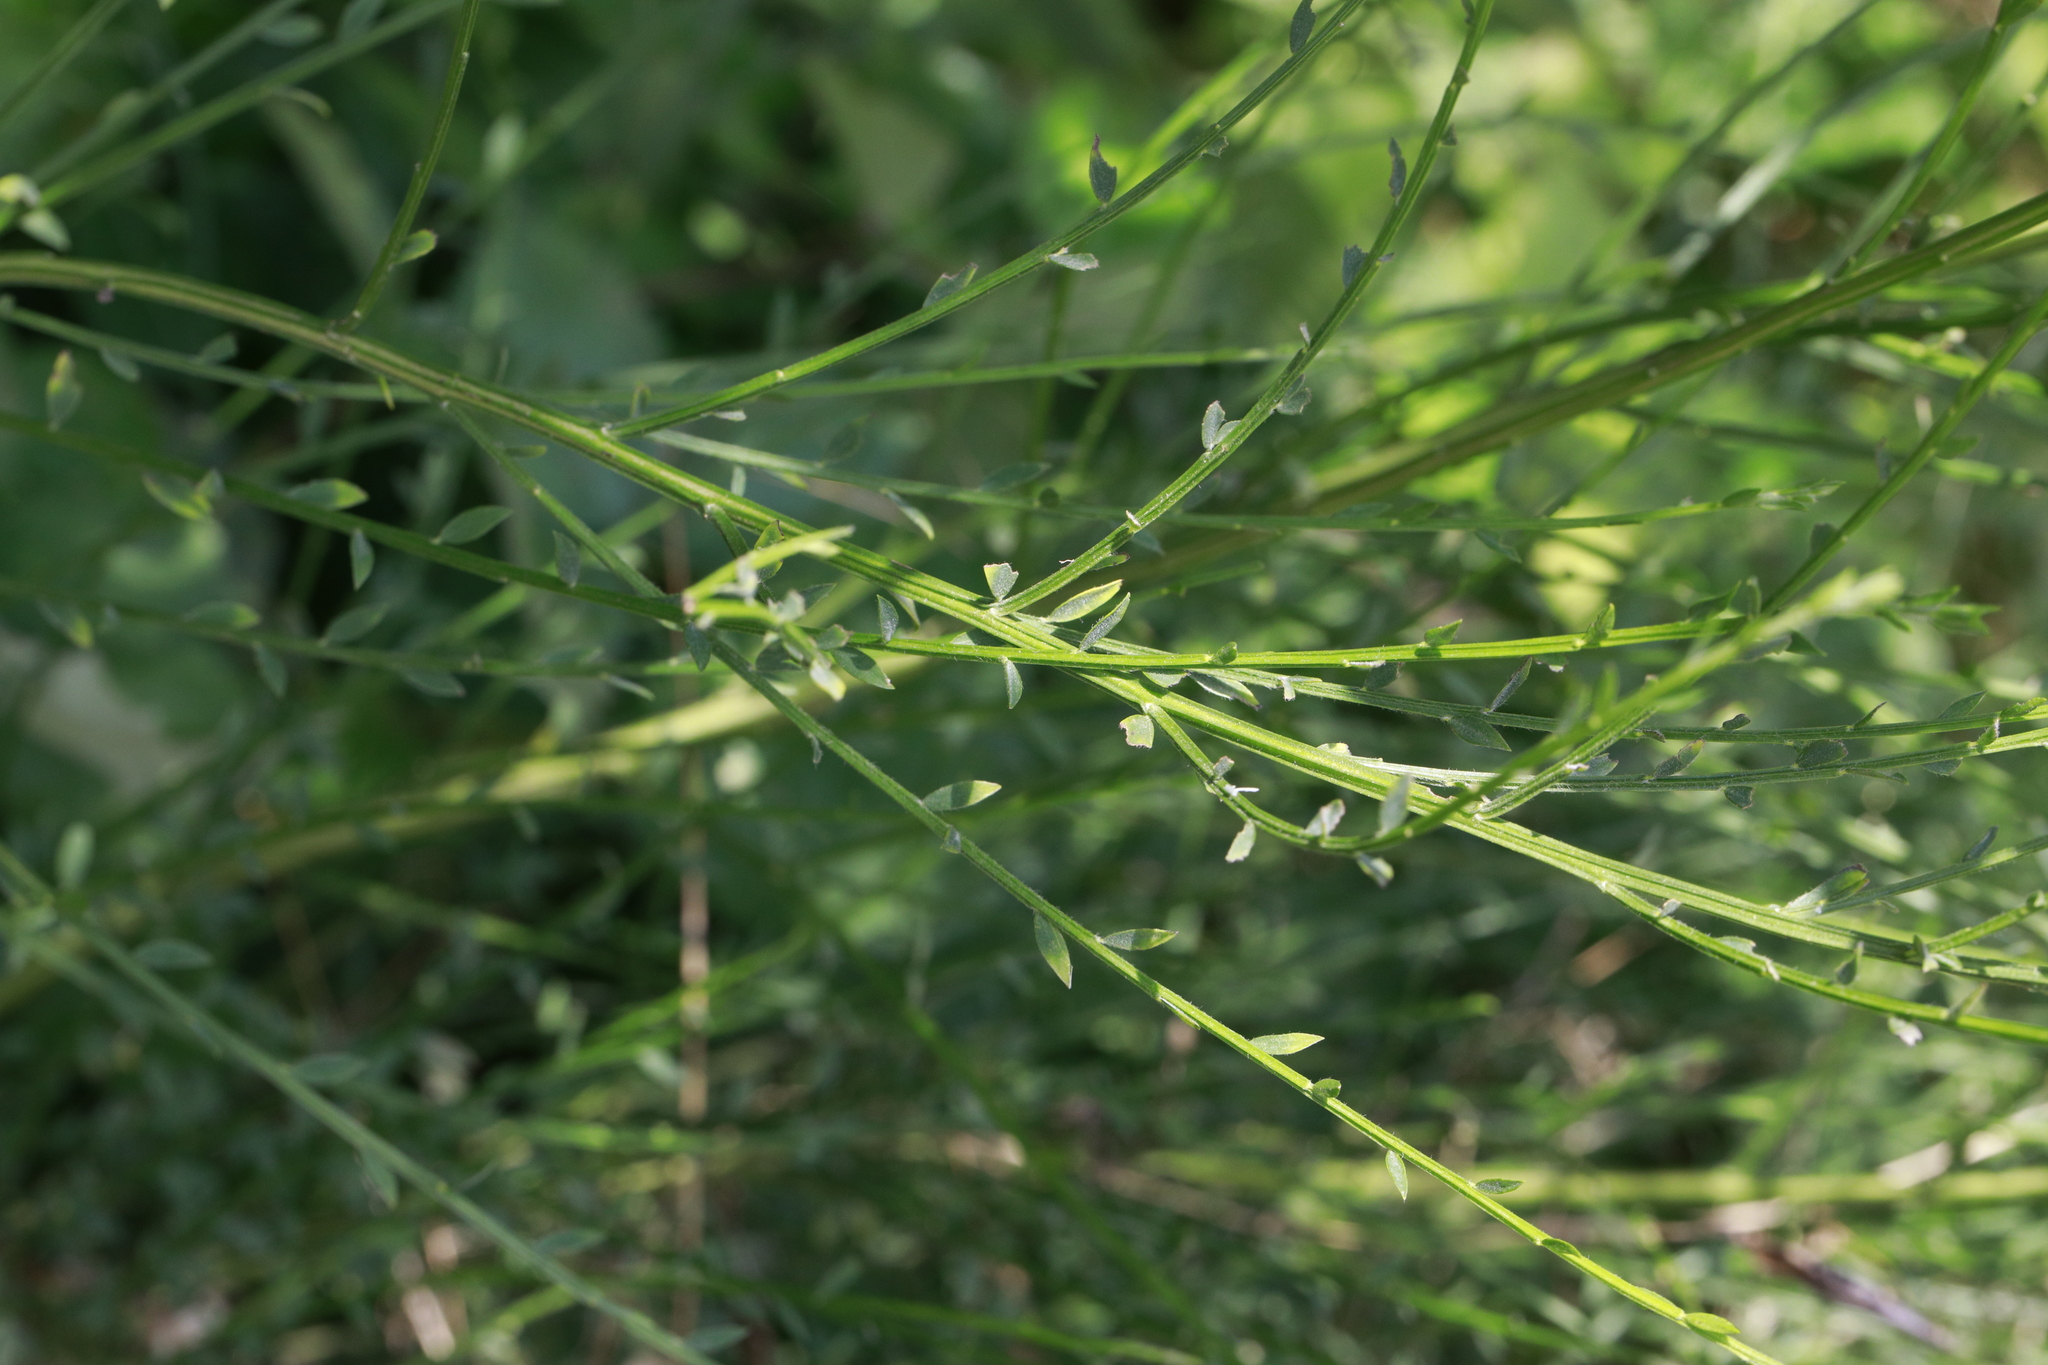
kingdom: Plantae
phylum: Tracheophyta
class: Magnoliopsida
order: Fabales
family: Fabaceae
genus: Cytisus
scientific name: Cytisus scoparius
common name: Scotch broom
